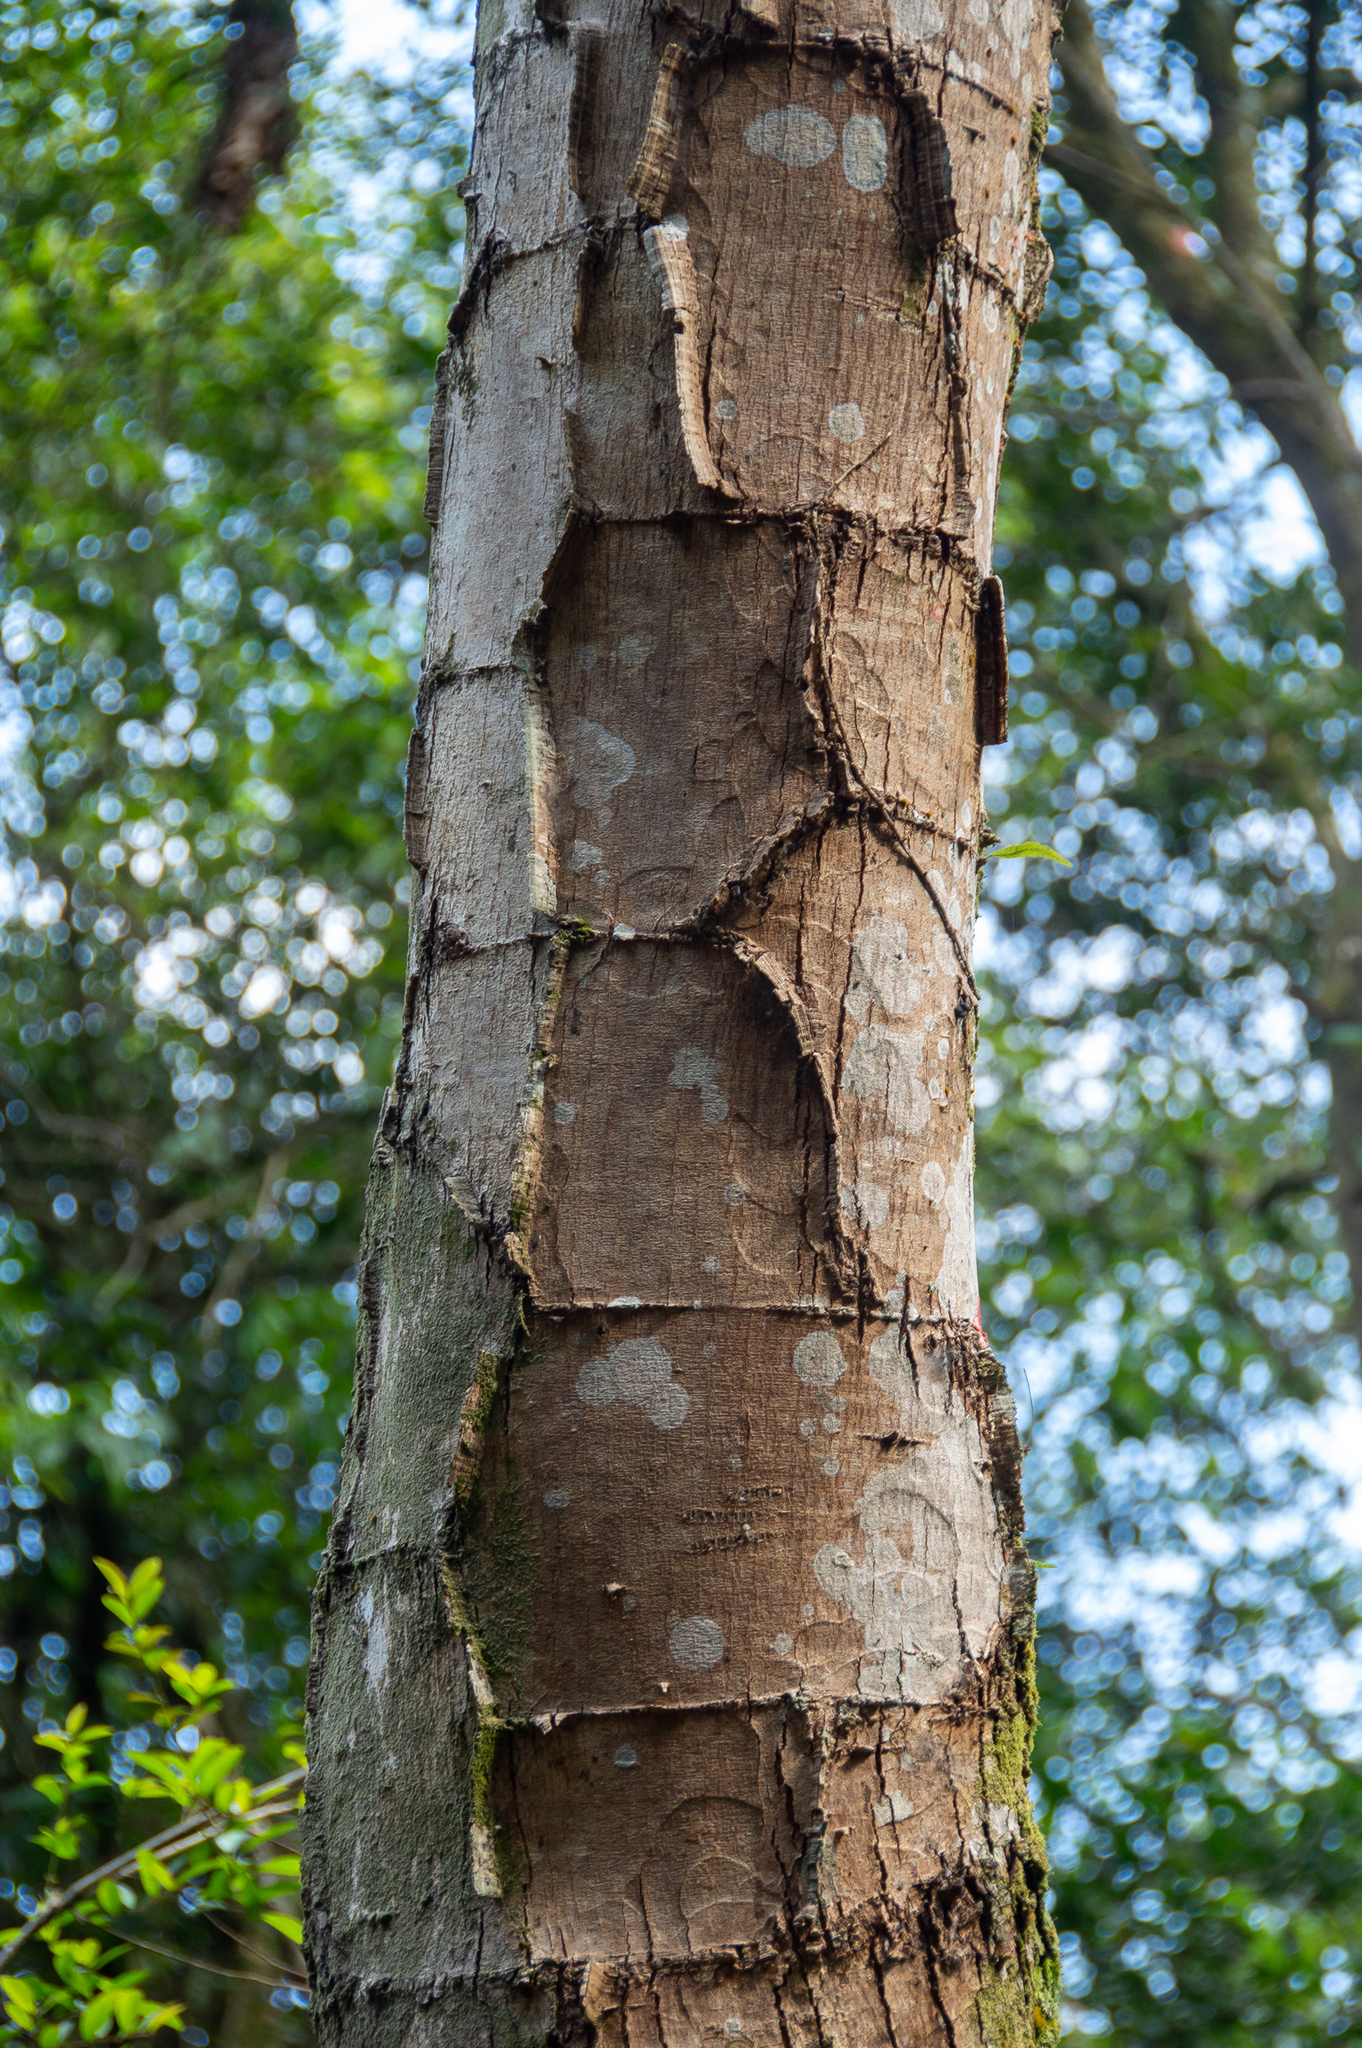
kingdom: Plantae
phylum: Tracheophyta
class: Magnoliopsida
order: Fabales
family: Fabaceae
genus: Piptadenia
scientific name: Piptadenia gonoacantha
